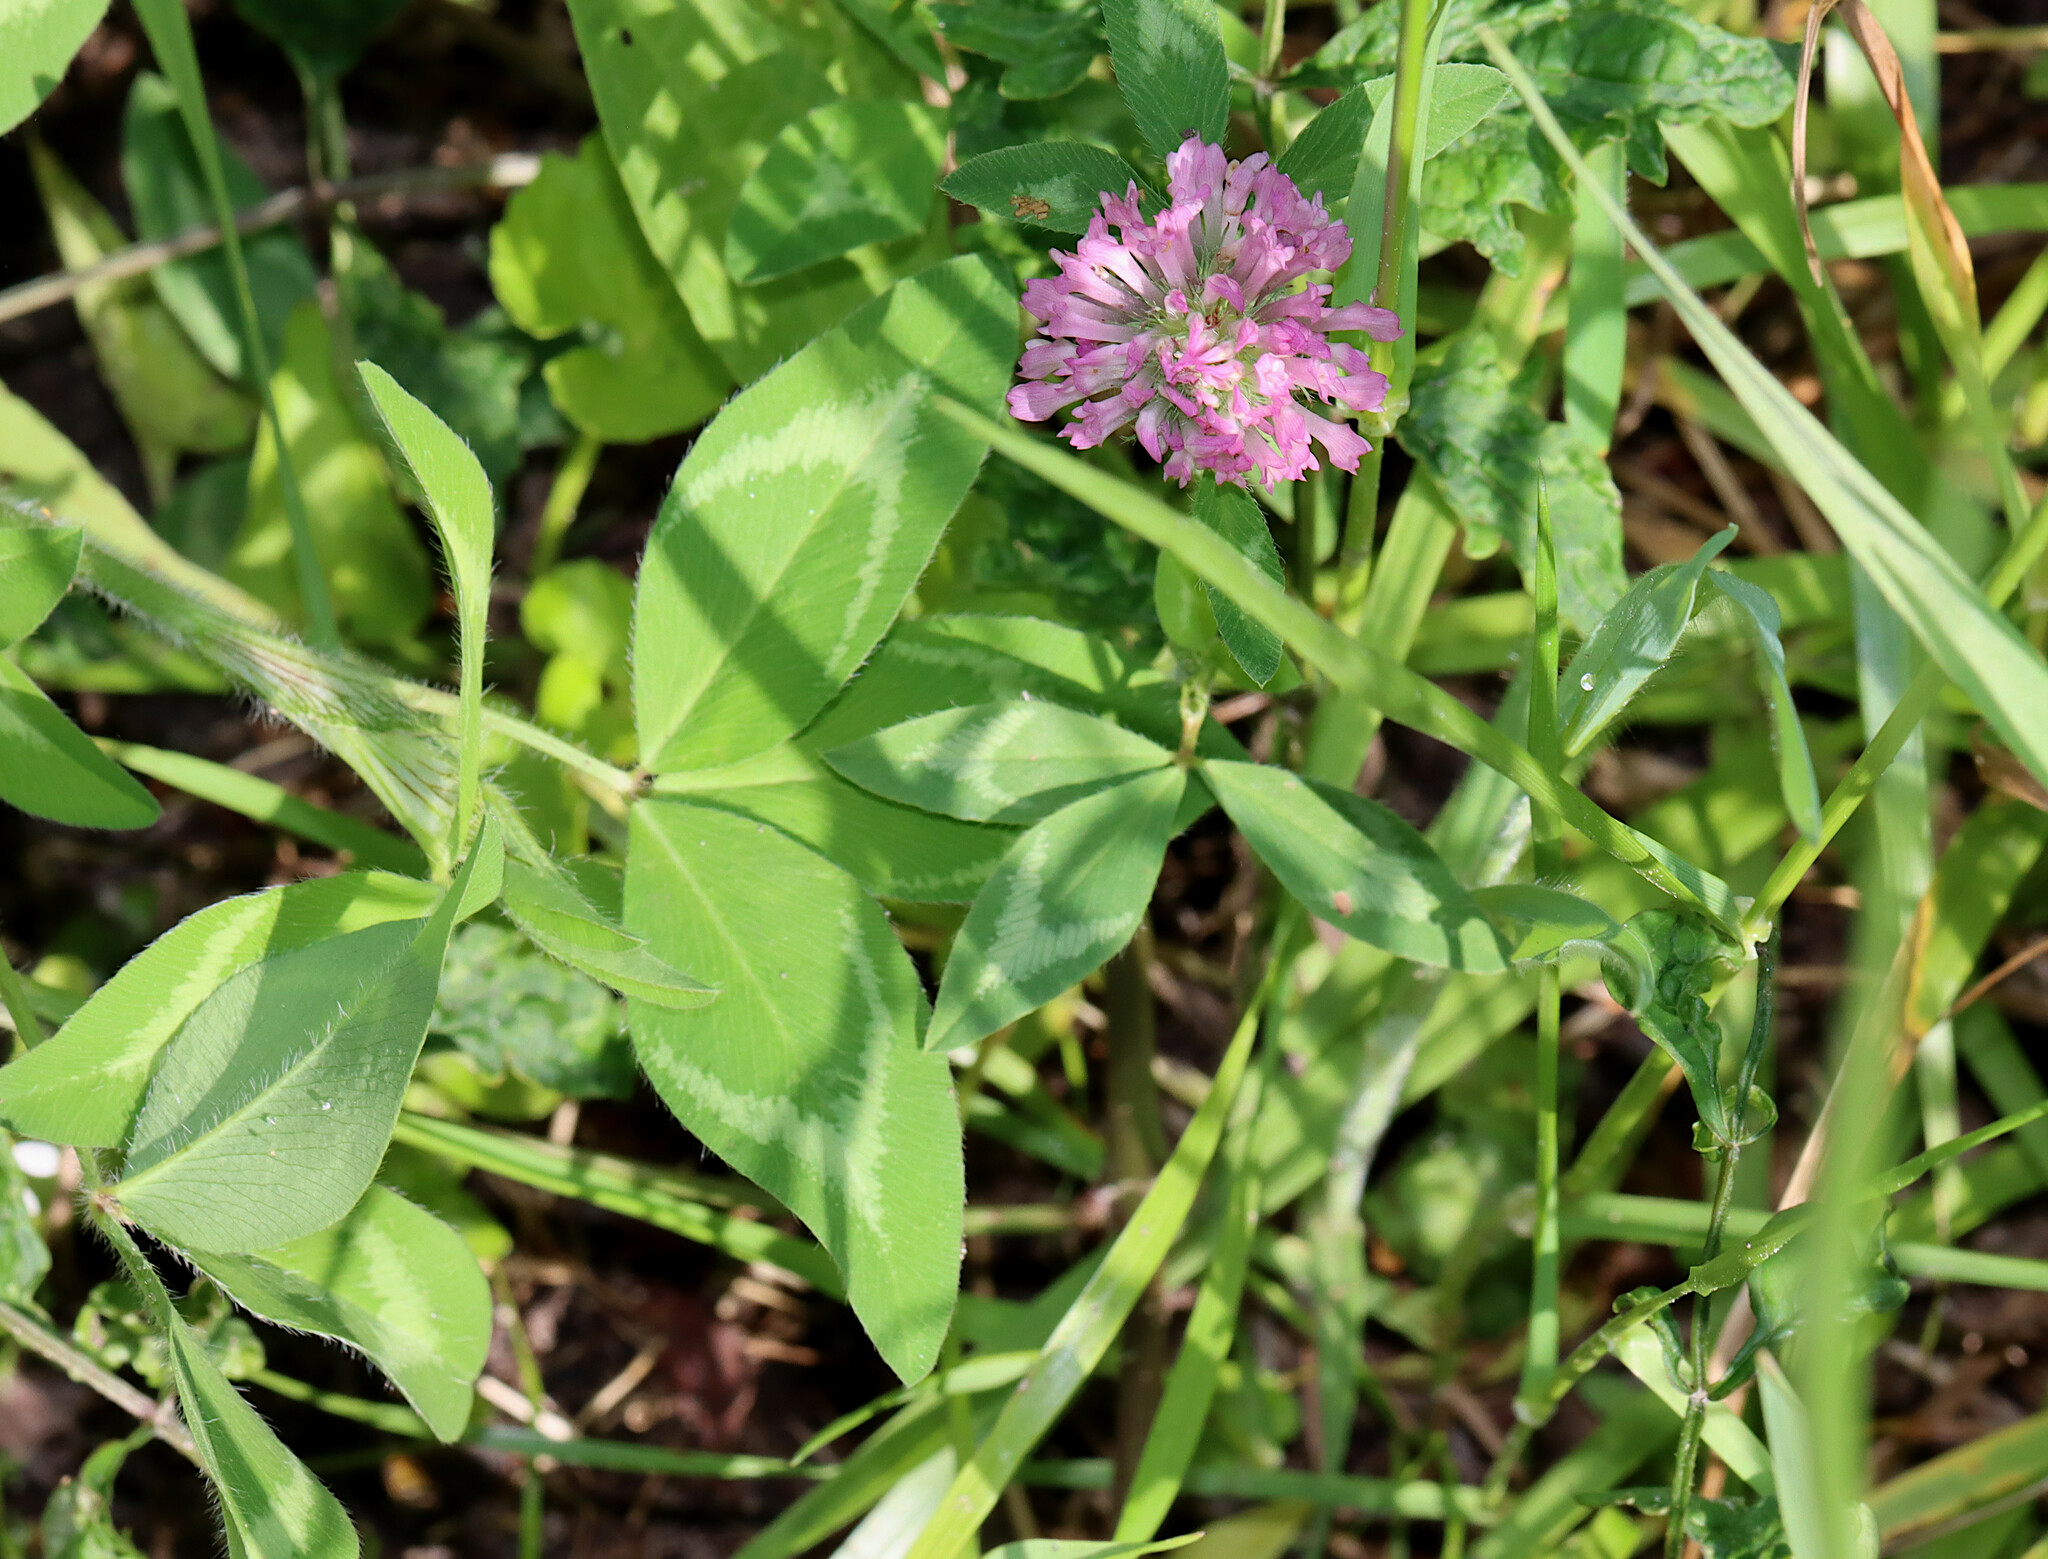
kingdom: Plantae
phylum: Tracheophyta
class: Magnoliopsida
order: Fabales
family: Fabaceae
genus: Trifolium
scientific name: Trifolium pratense
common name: Red clover
